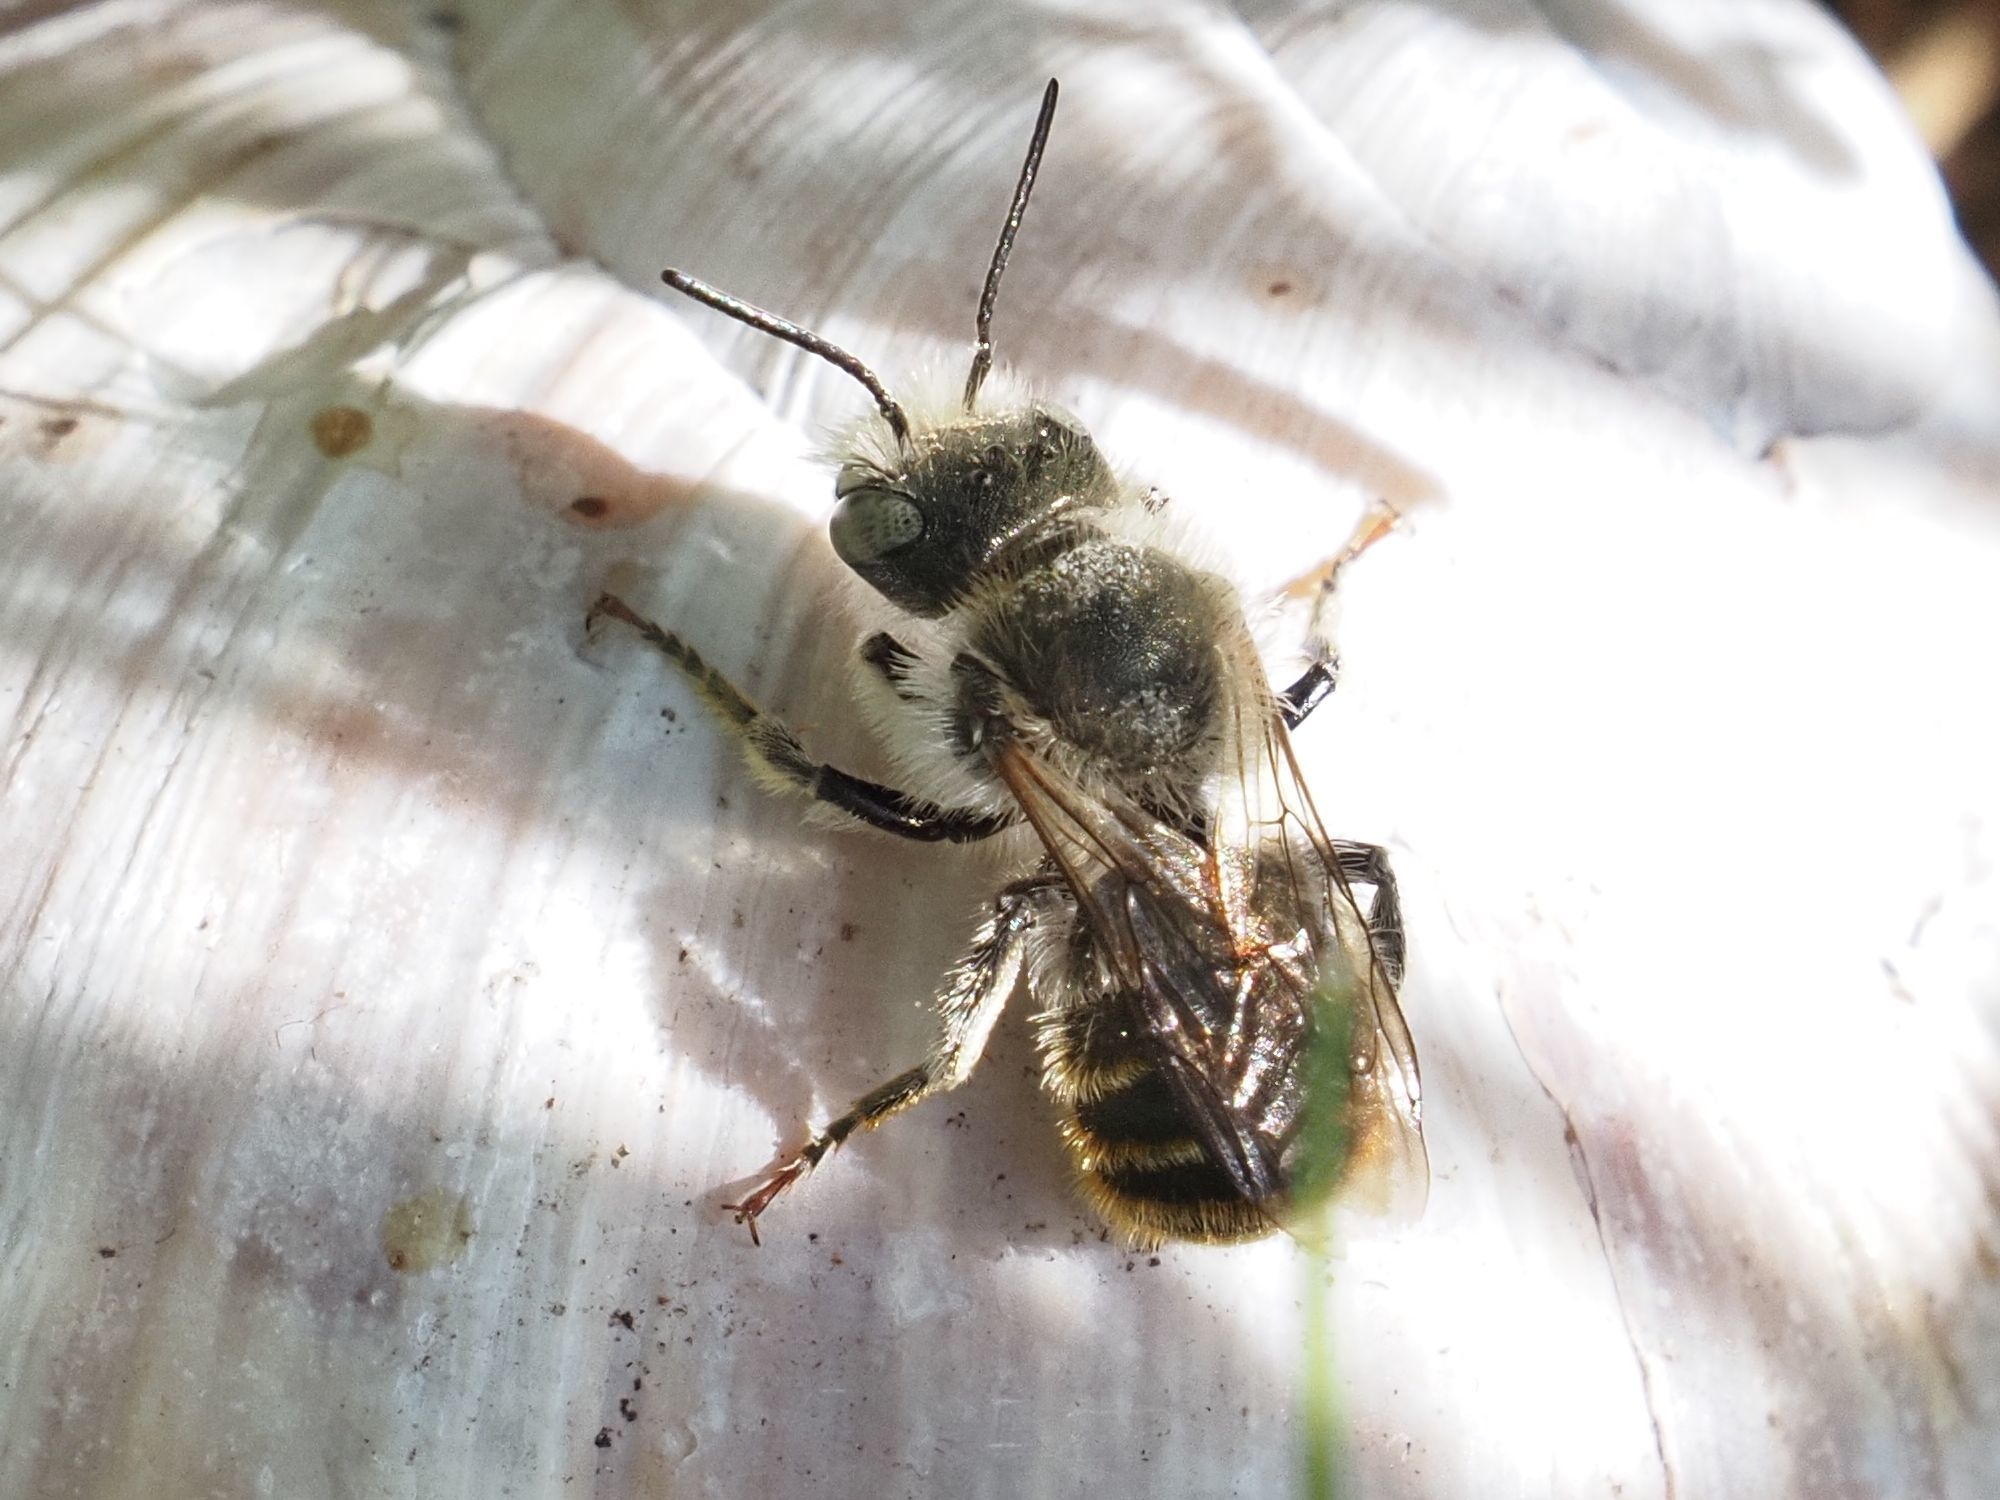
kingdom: Animalia
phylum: Arthropoda
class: Insecta
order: Hymenoptera
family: Megachilidae
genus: Osmia
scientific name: Osmia aurulenta
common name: Gold-fringed mason bee
